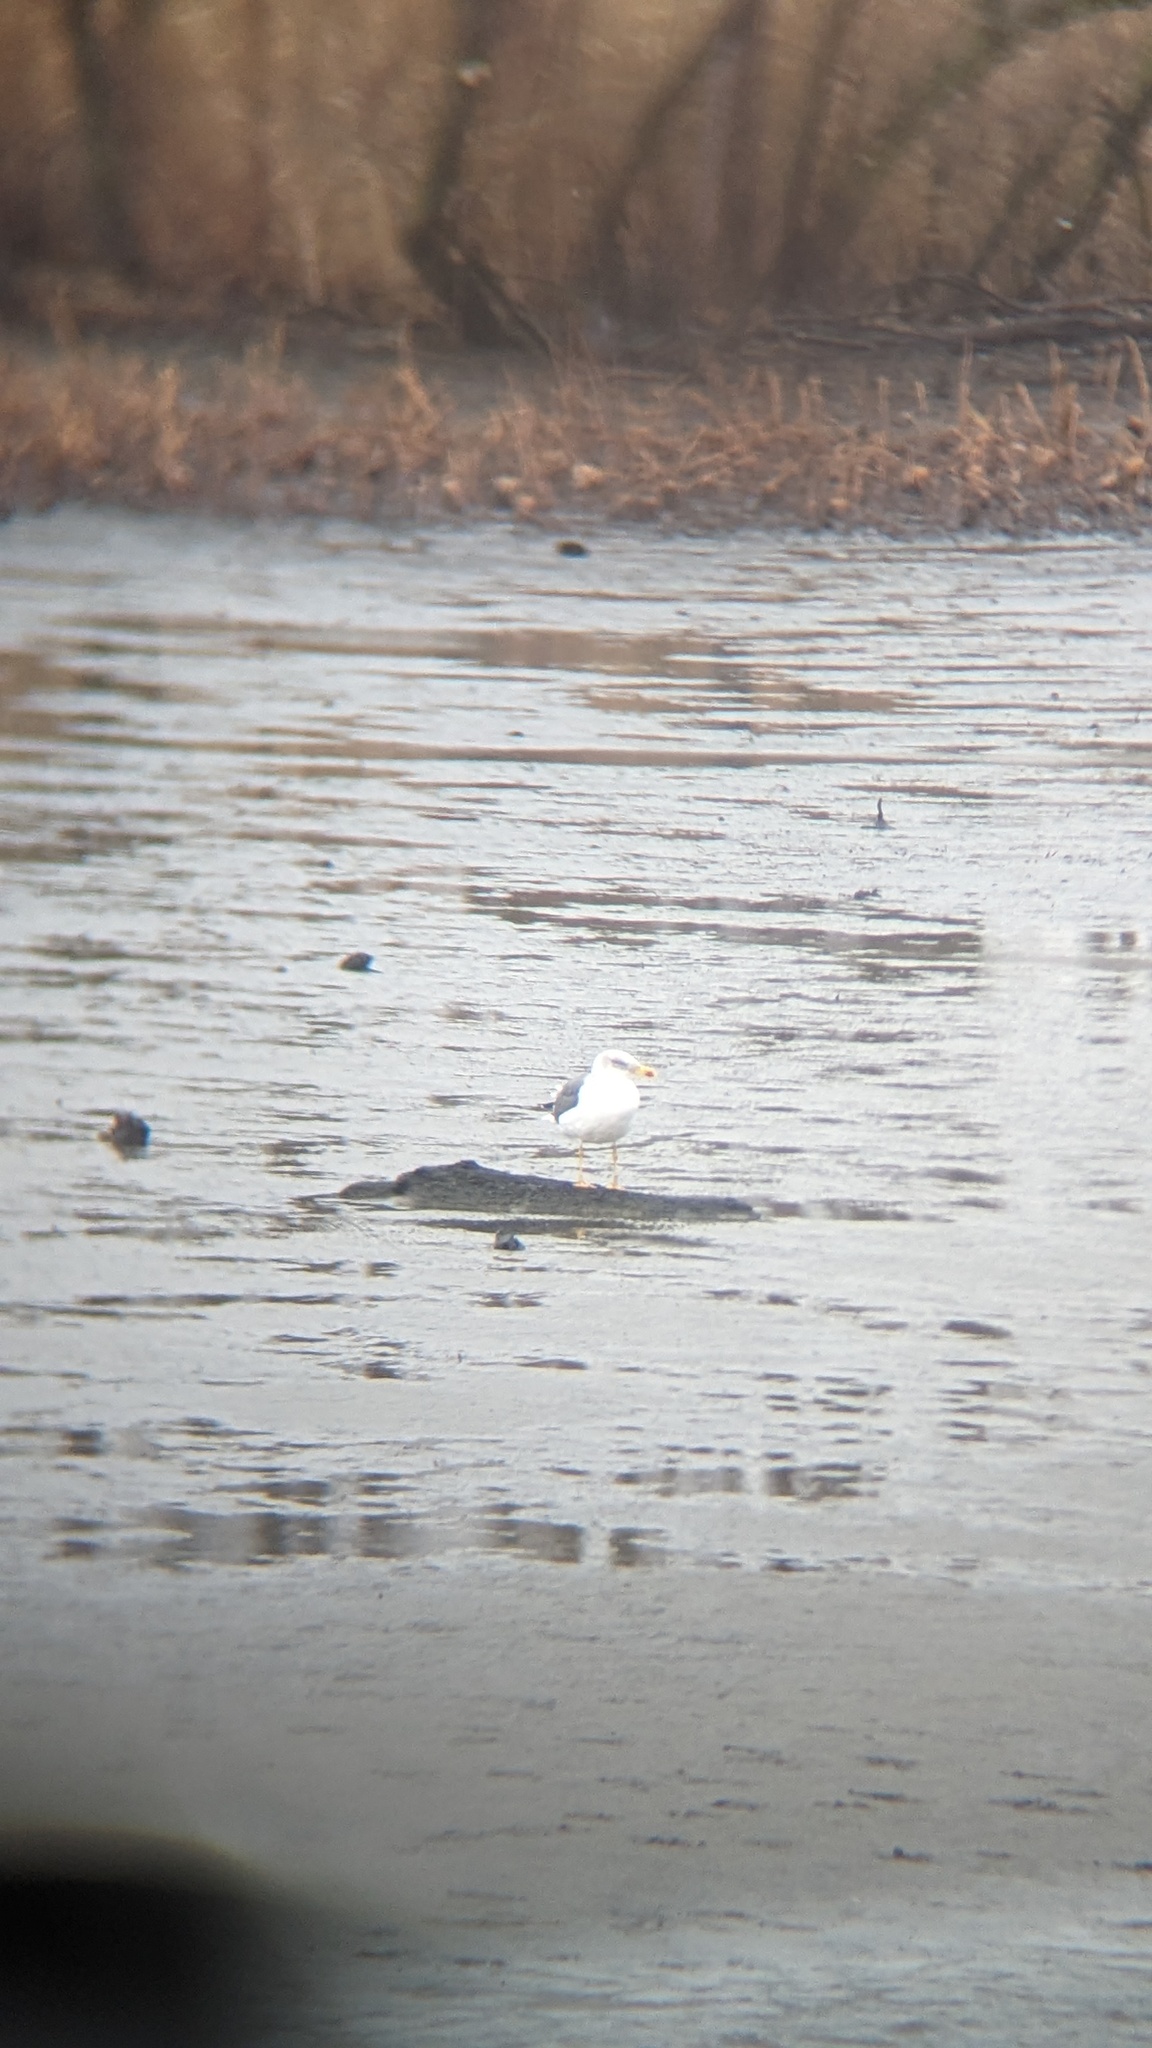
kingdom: Animalia
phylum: Chordata
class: Aves
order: Charadriiformes
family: Laridae
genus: Larus
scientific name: Larus fuscus
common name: Lesser black-backed gull
